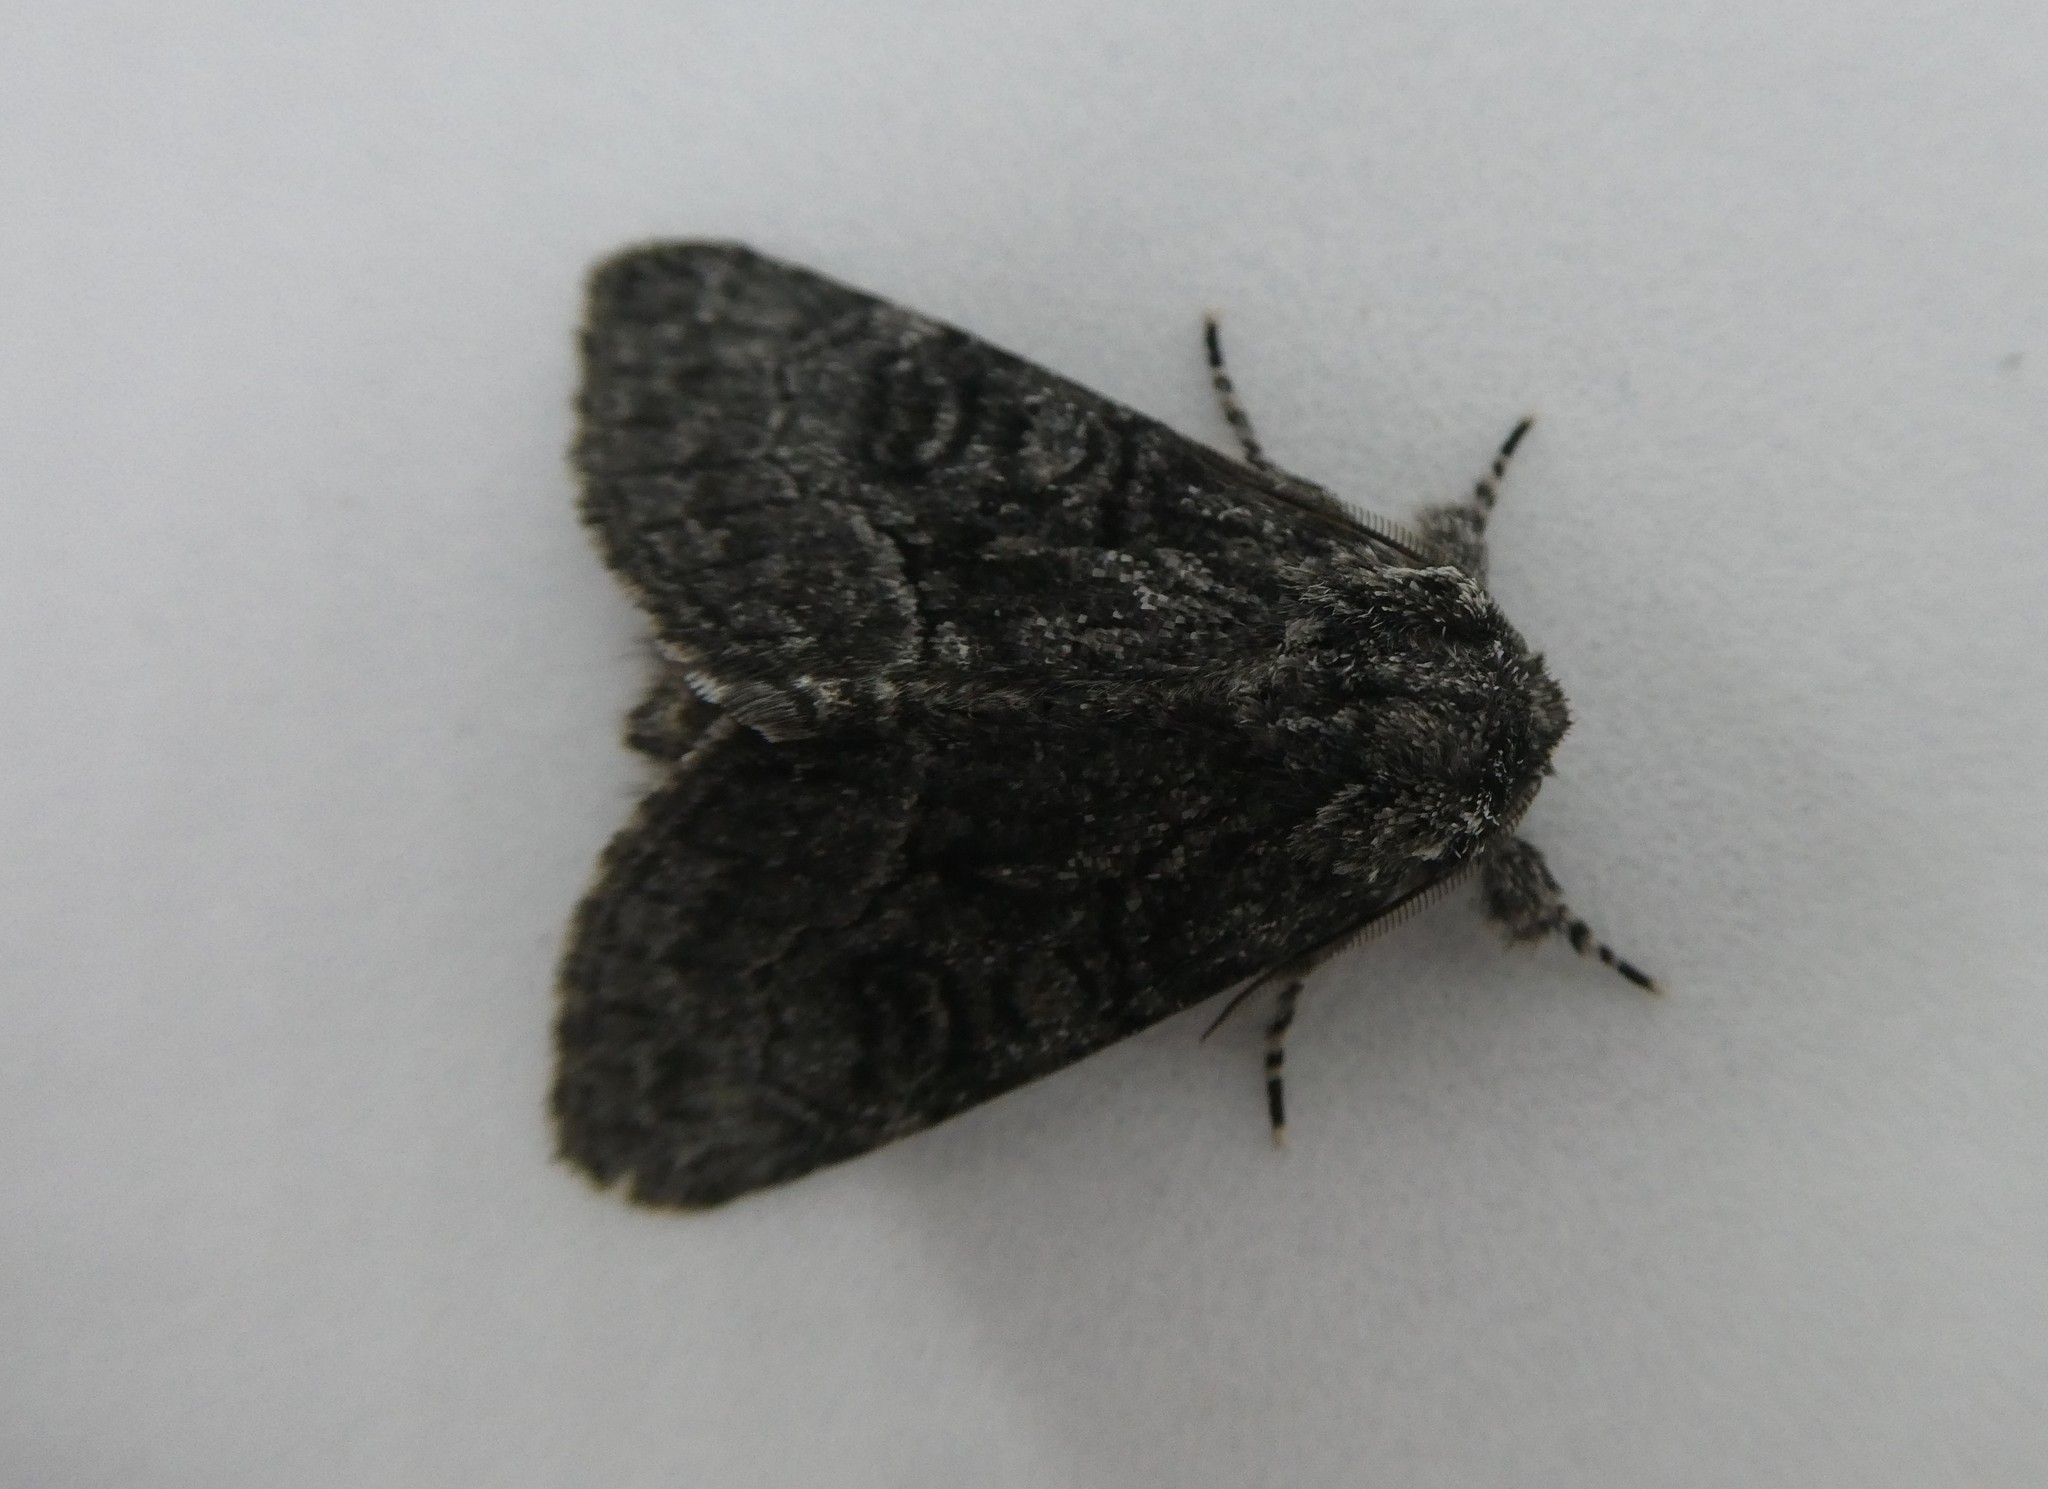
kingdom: Animalia
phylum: Arthropoda
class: Insecta
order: Lepidoptera
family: Noctuidae
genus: Raphia
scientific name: Raphia frater
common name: Brother
